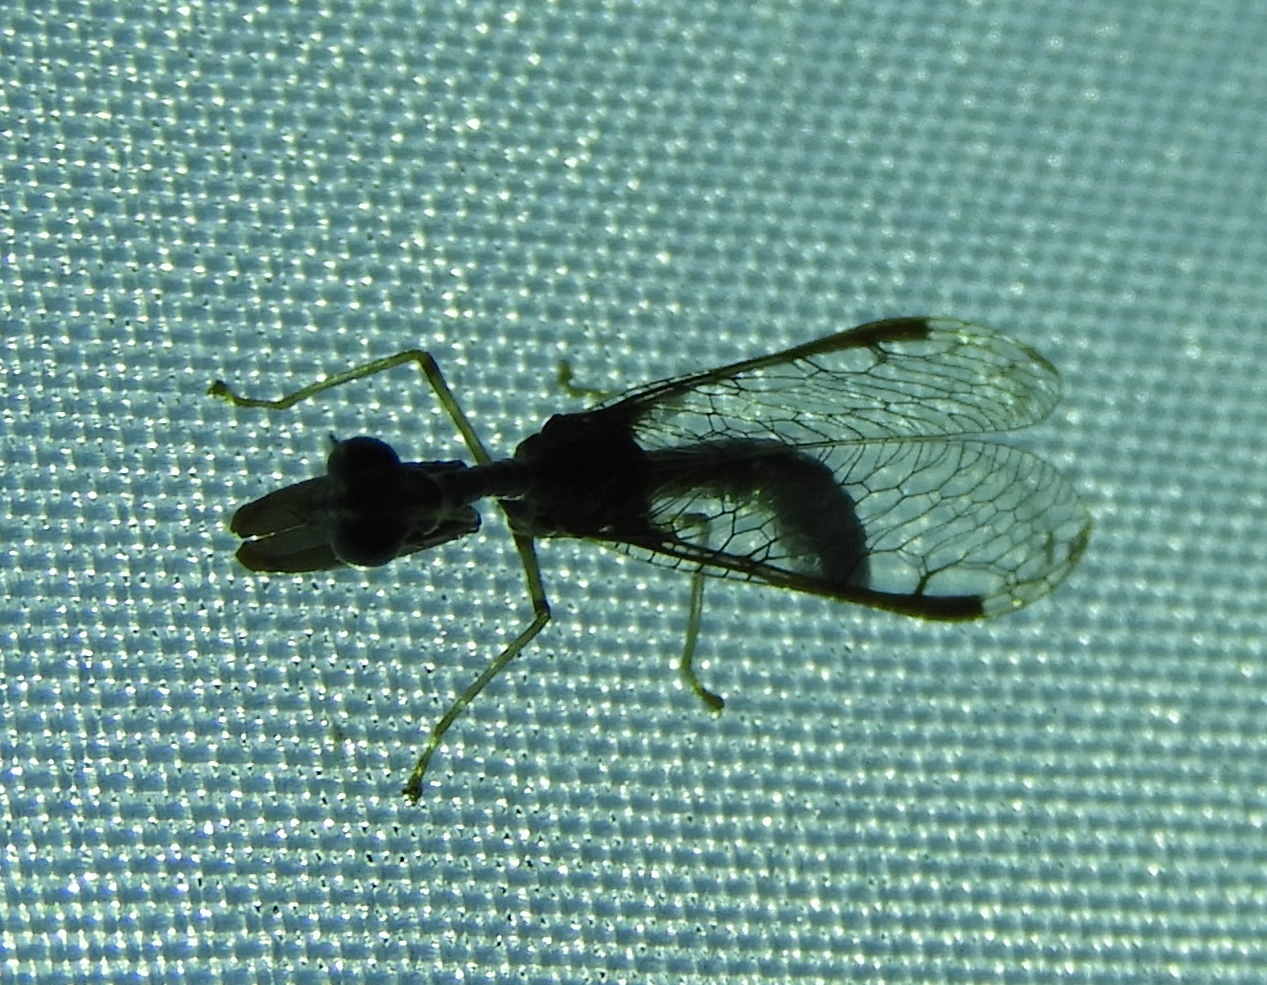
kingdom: Animalia
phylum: Arthropoda
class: Insecta
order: Neuroptera
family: Mantispidae
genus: Dicromantispa
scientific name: Dicromantispa
